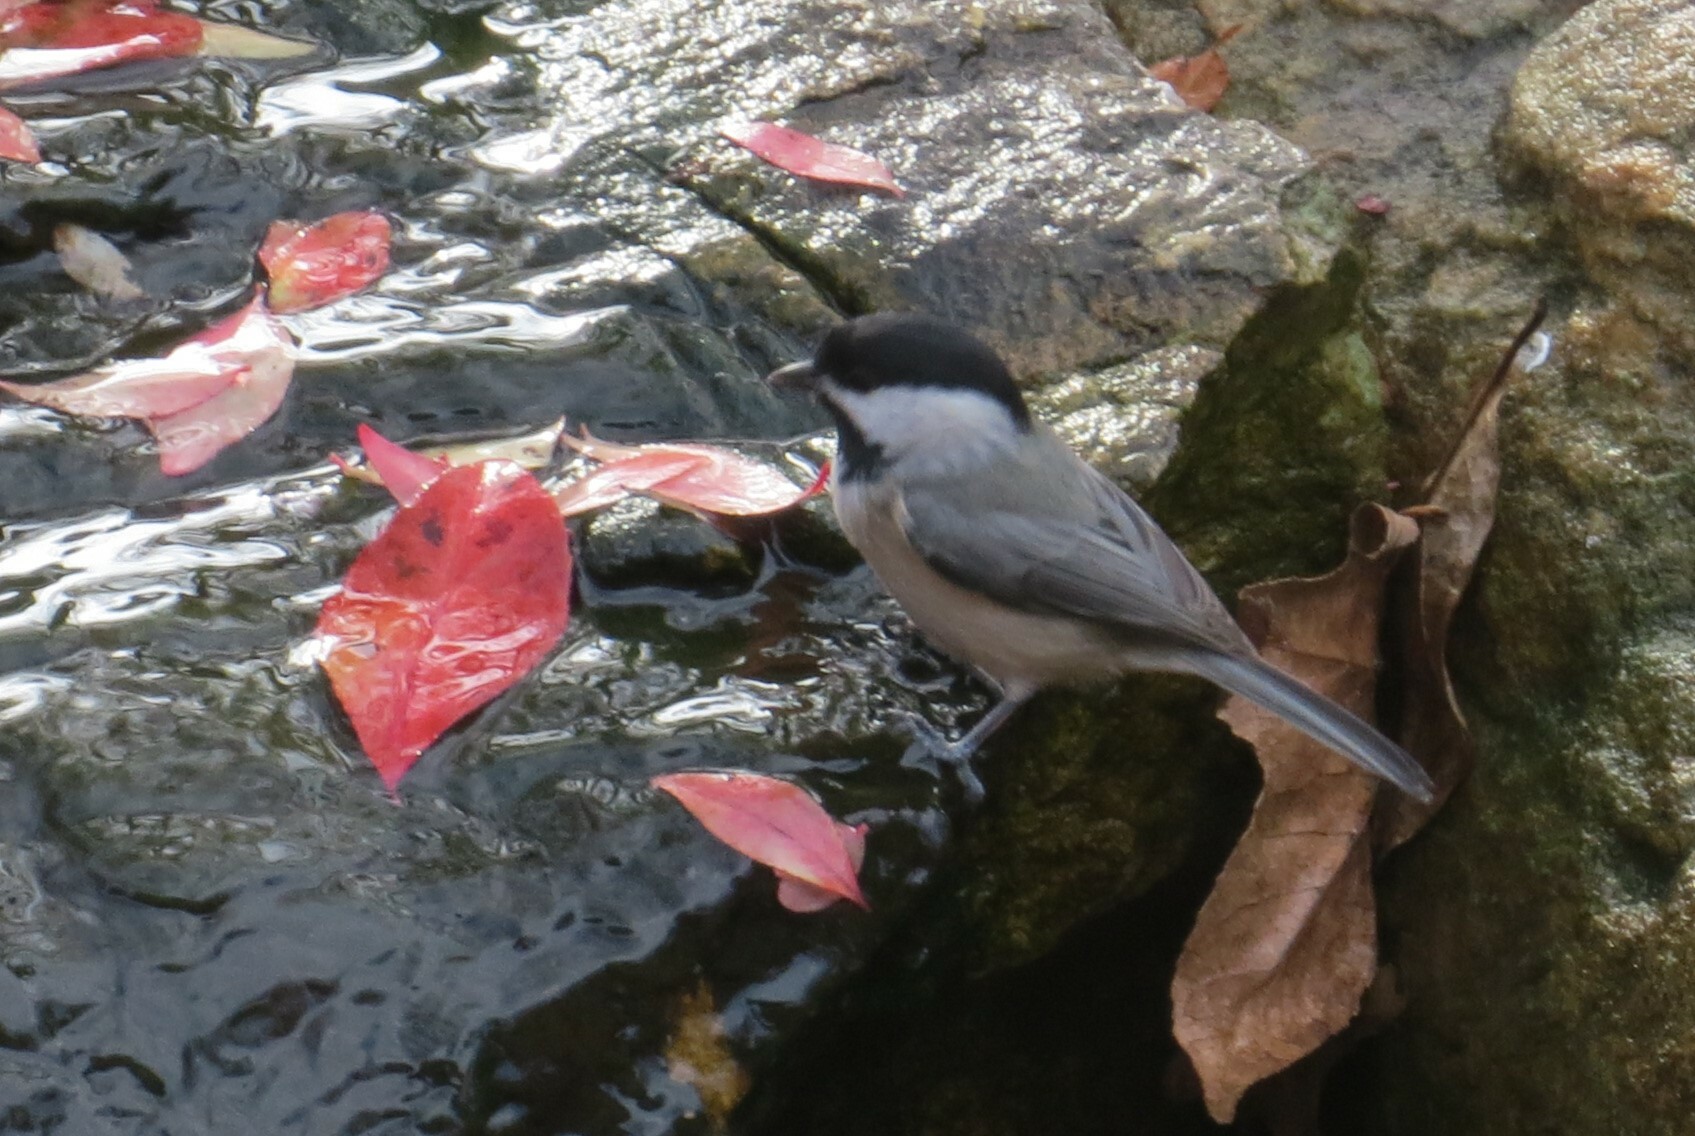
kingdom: Animalia
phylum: Chordata
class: Aves
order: Passeriformes
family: Paridae
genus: Poecile
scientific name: Poecile carolinensis
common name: Carolina chickadee
